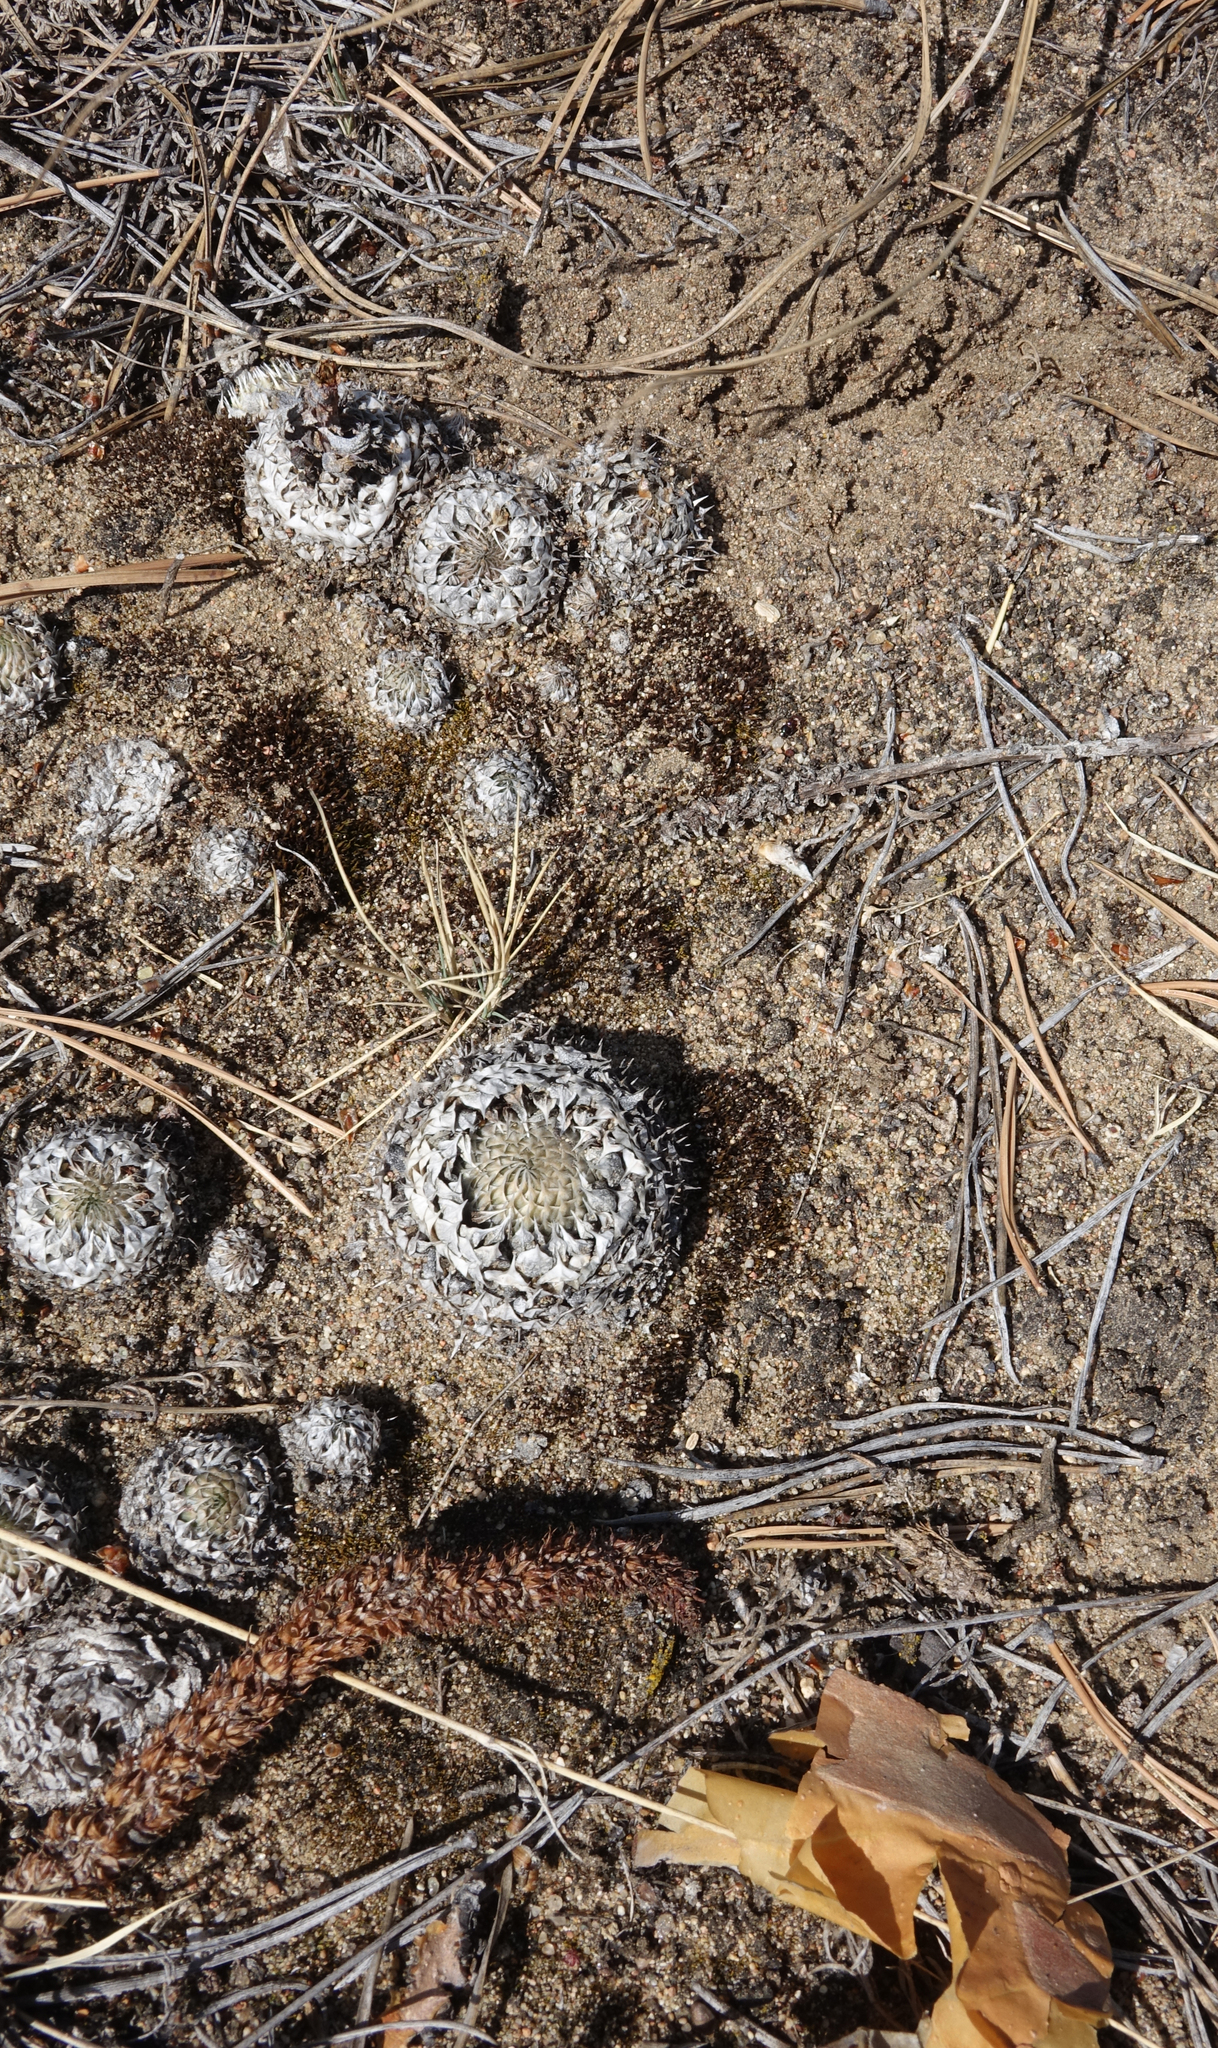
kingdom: Plantae
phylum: Tracheophyta
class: Magnoliopsida
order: Saxifragales
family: Crassulaceae
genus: Orostachys
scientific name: Orostachys spinosa
